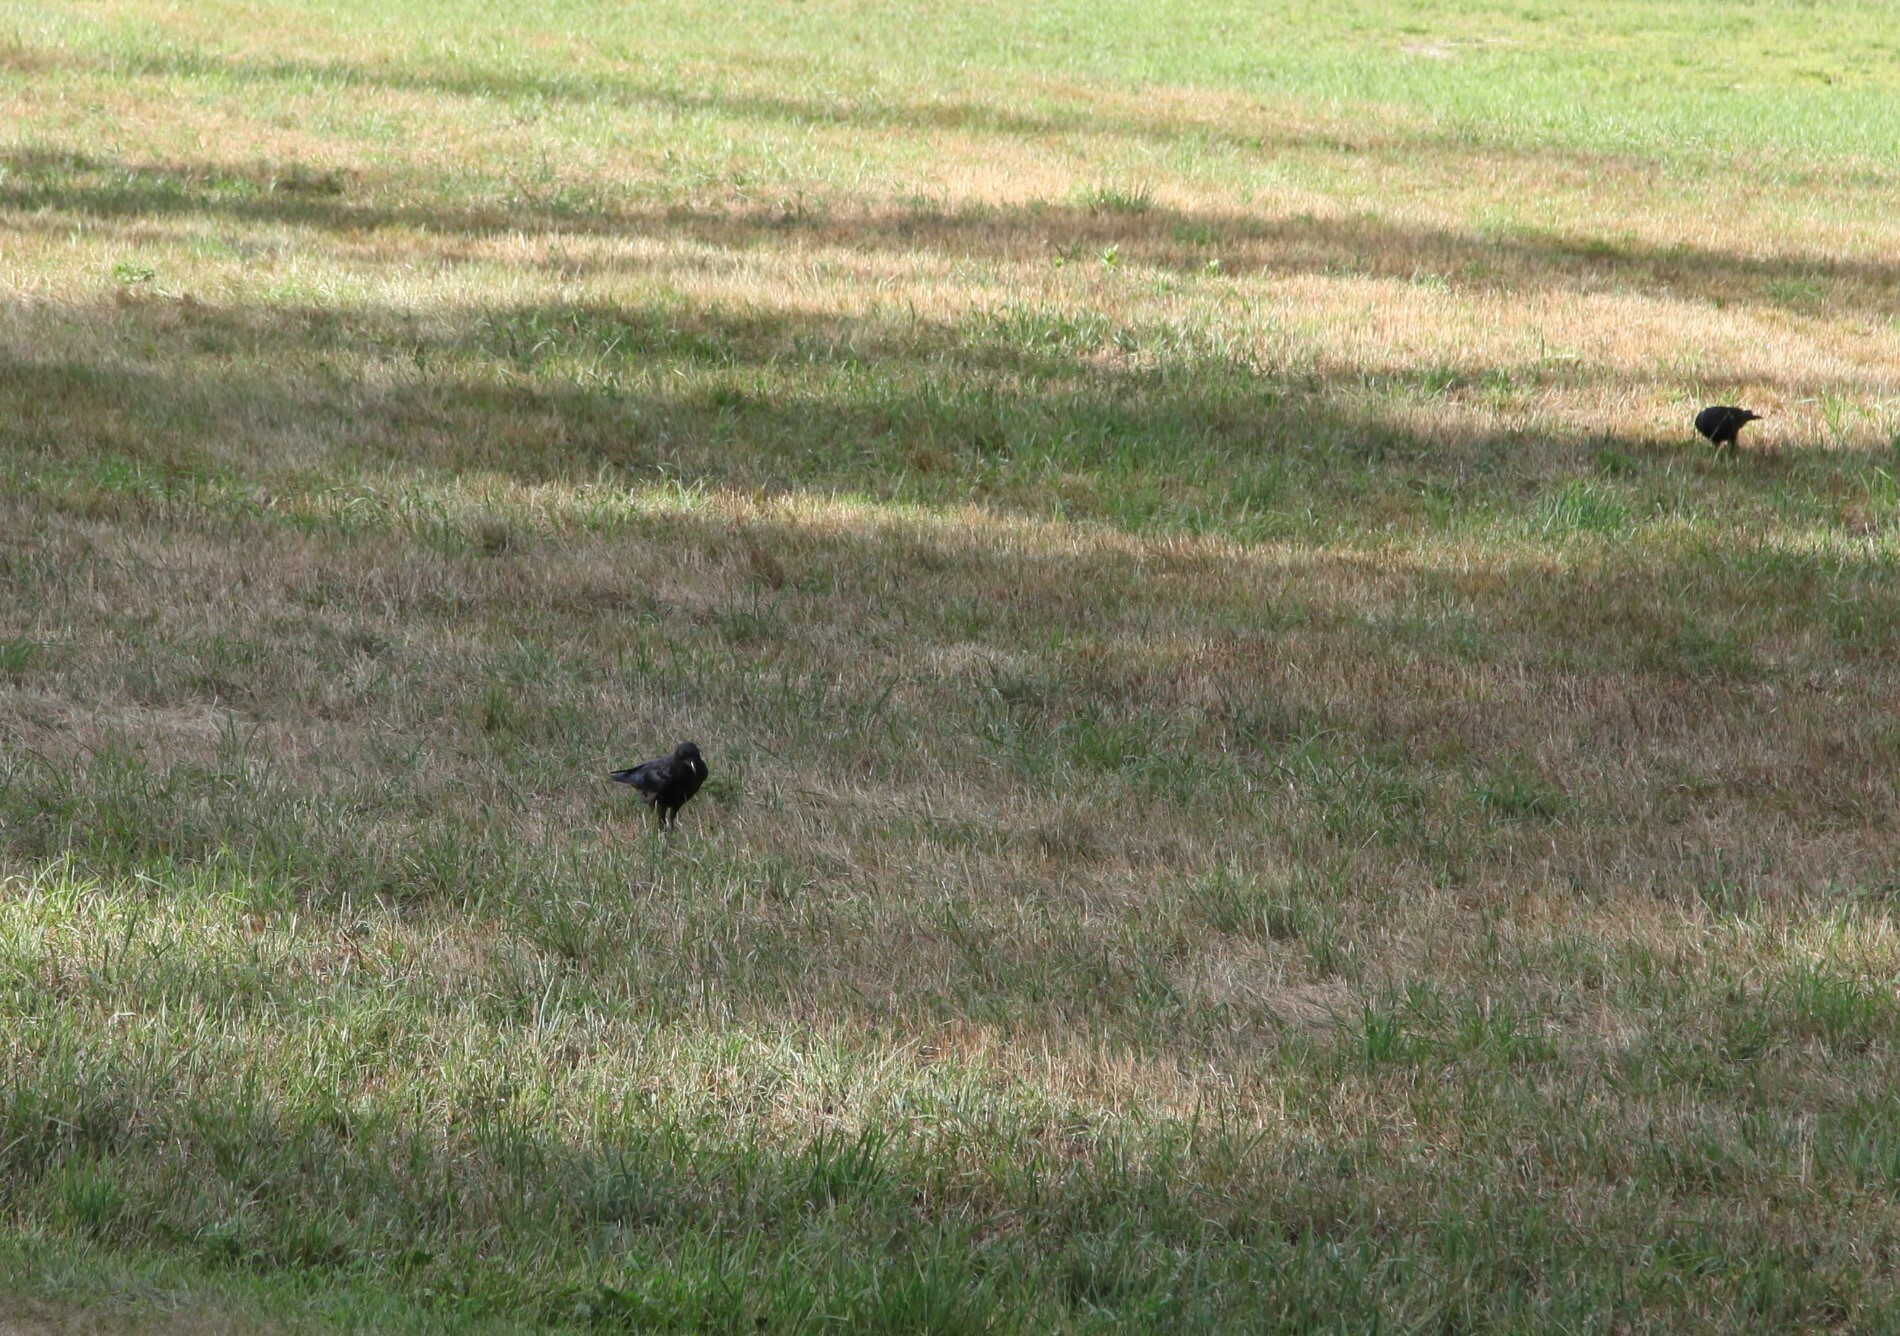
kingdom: Animalia
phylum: Chordata
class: Aves
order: Passeriformes
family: Corvidae
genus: Corvus
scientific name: Corvus brachyrhynchos
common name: American crow
